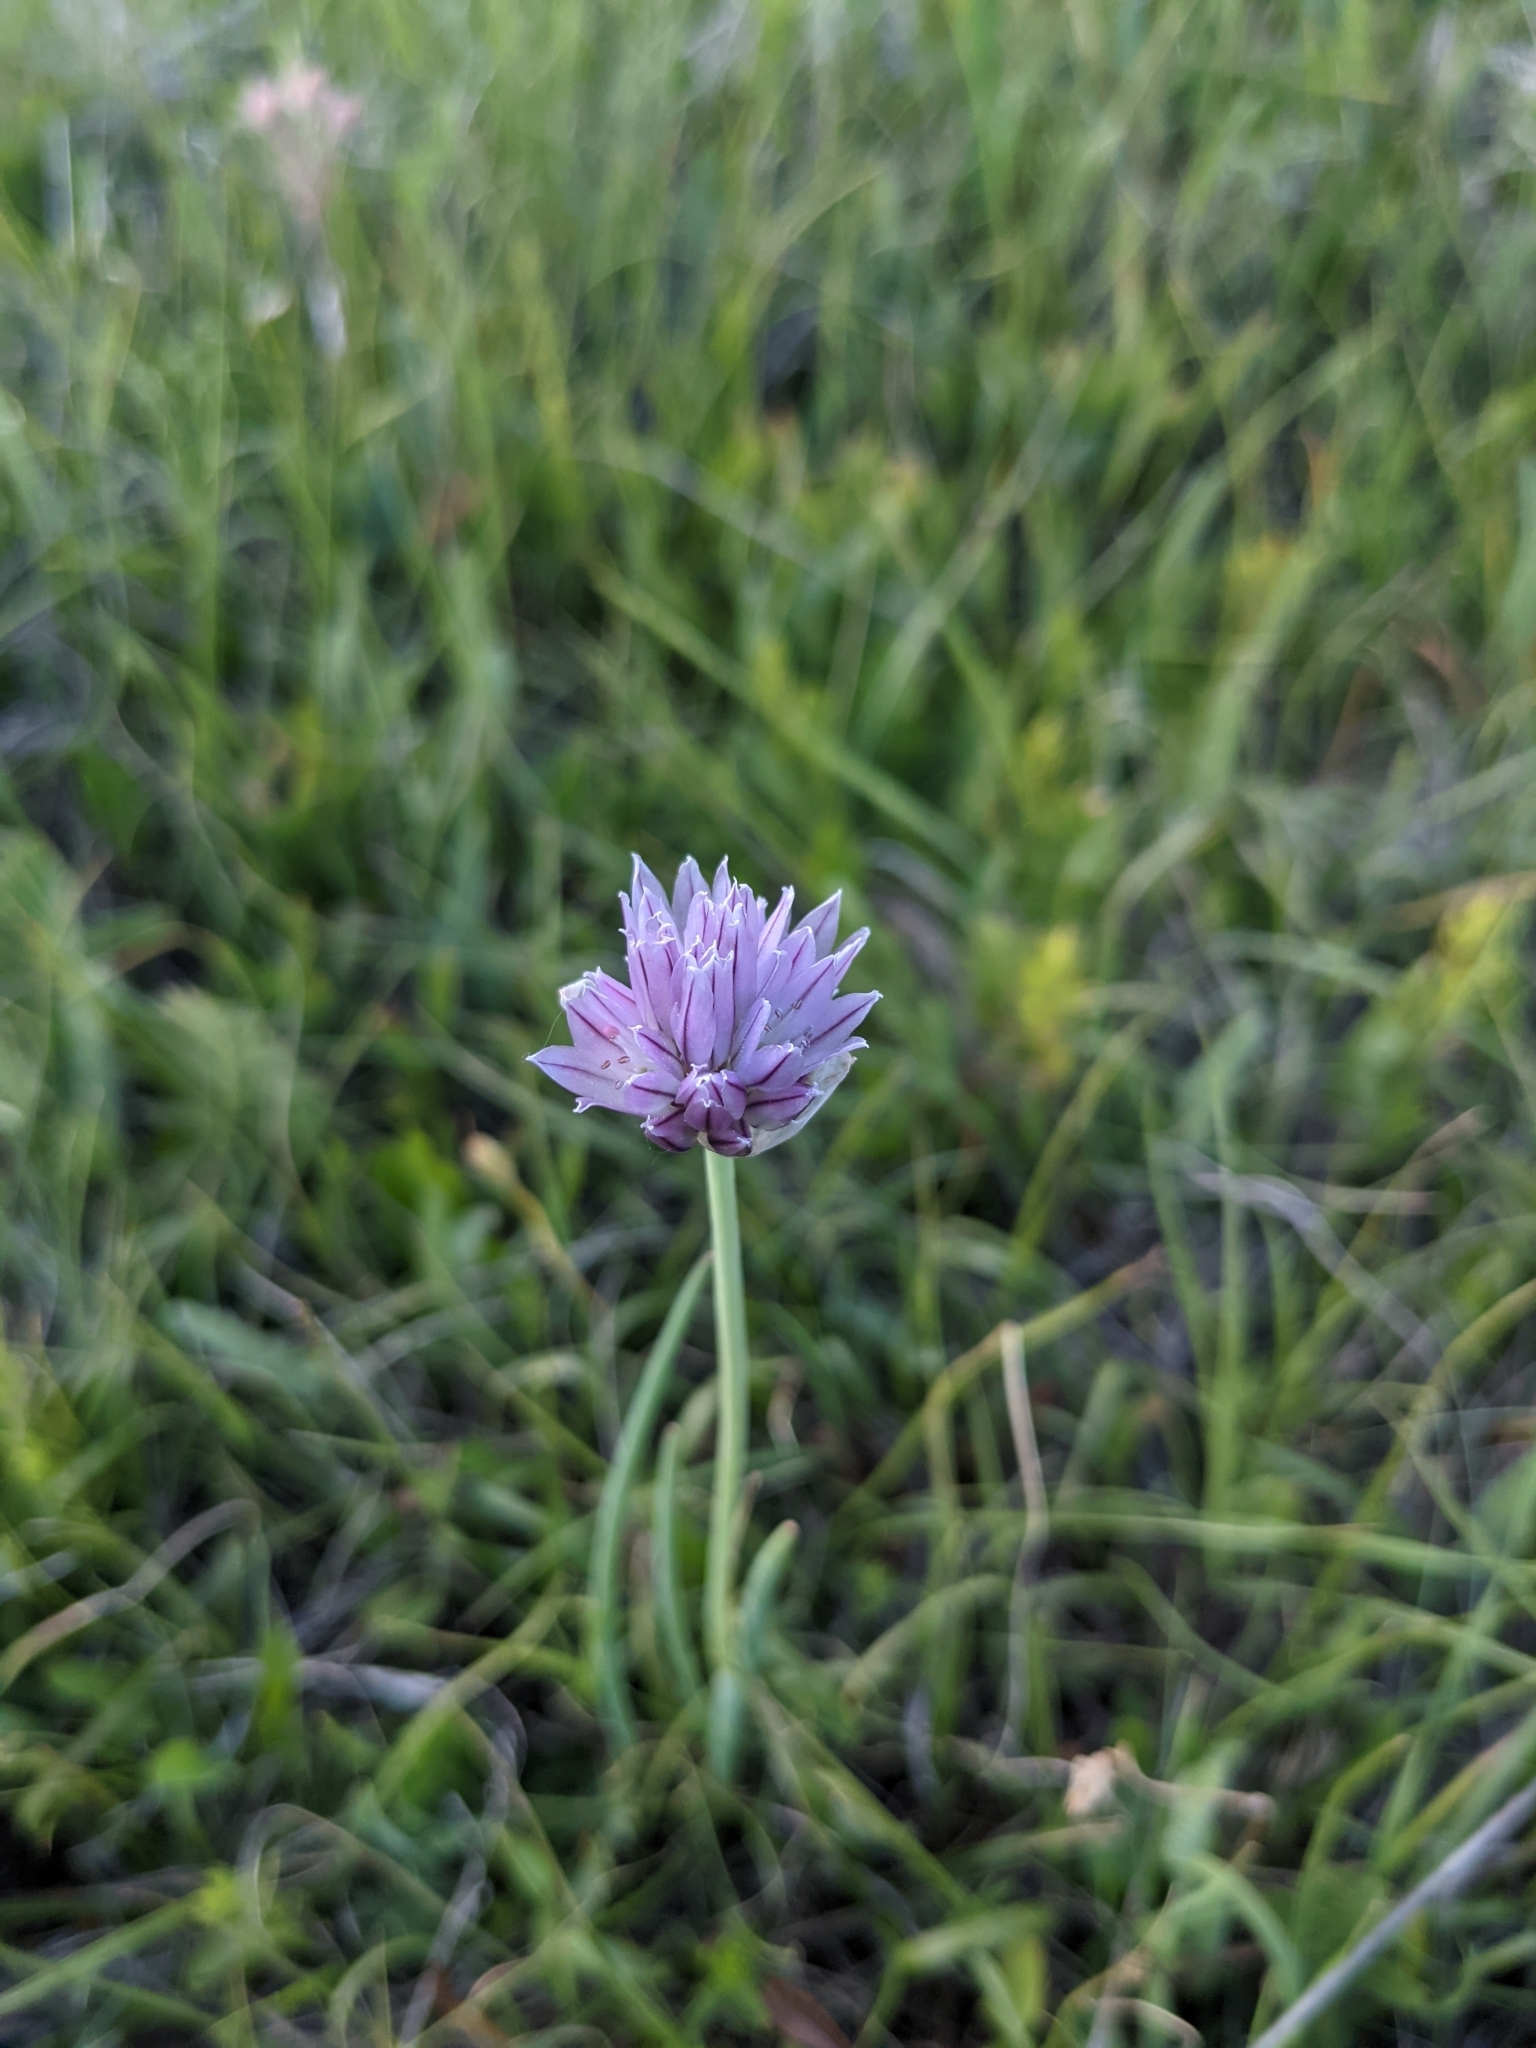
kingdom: Plantae
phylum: Tracheophyta
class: Liliopsida
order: Asparagales
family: Amaryllidaceae
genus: Allium
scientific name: Allium schoenoprasum
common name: Chives
